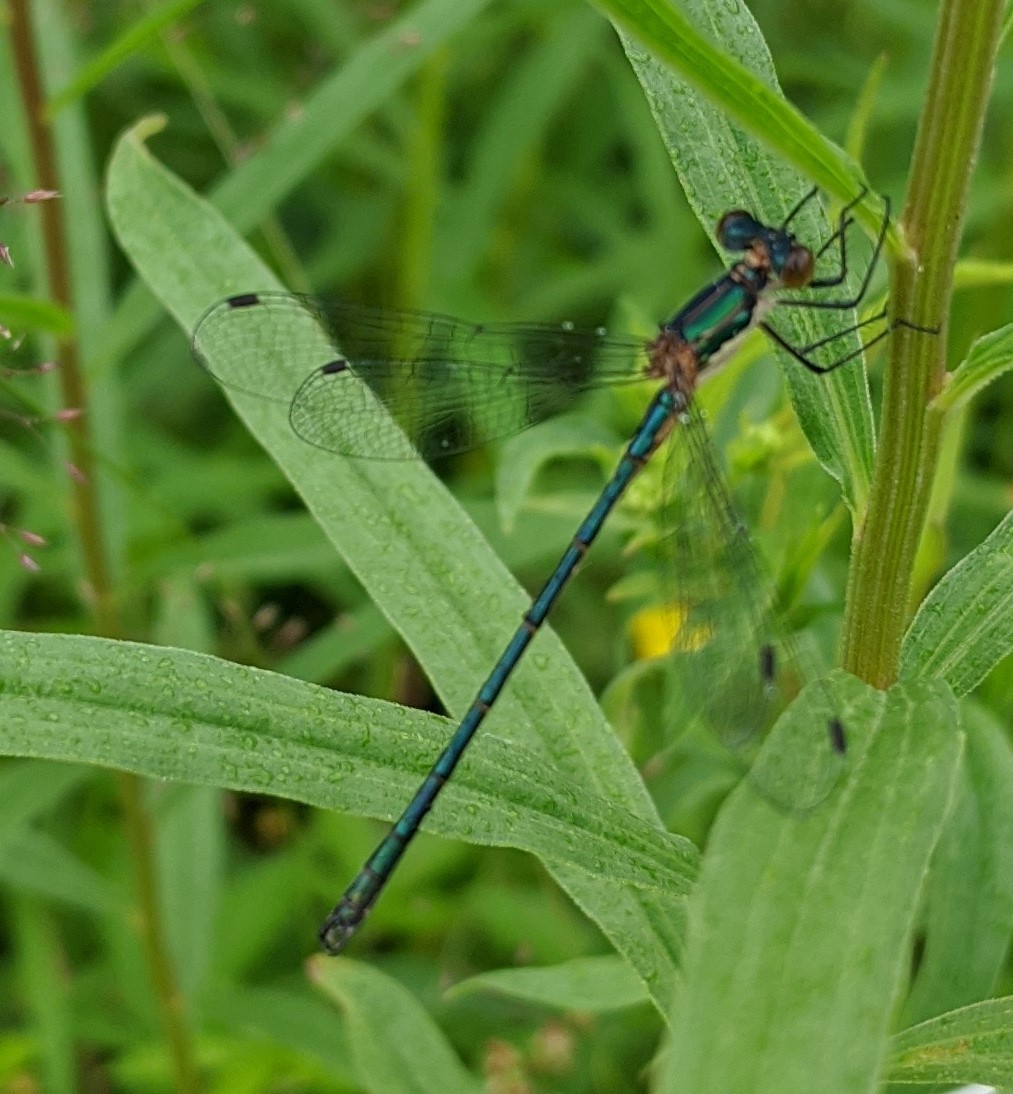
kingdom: Animalia
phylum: Arthropoda
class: Insecta
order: Odonata
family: Lestidae
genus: Lestes
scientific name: Lestes dryas
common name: Scarce emerald damselfly
